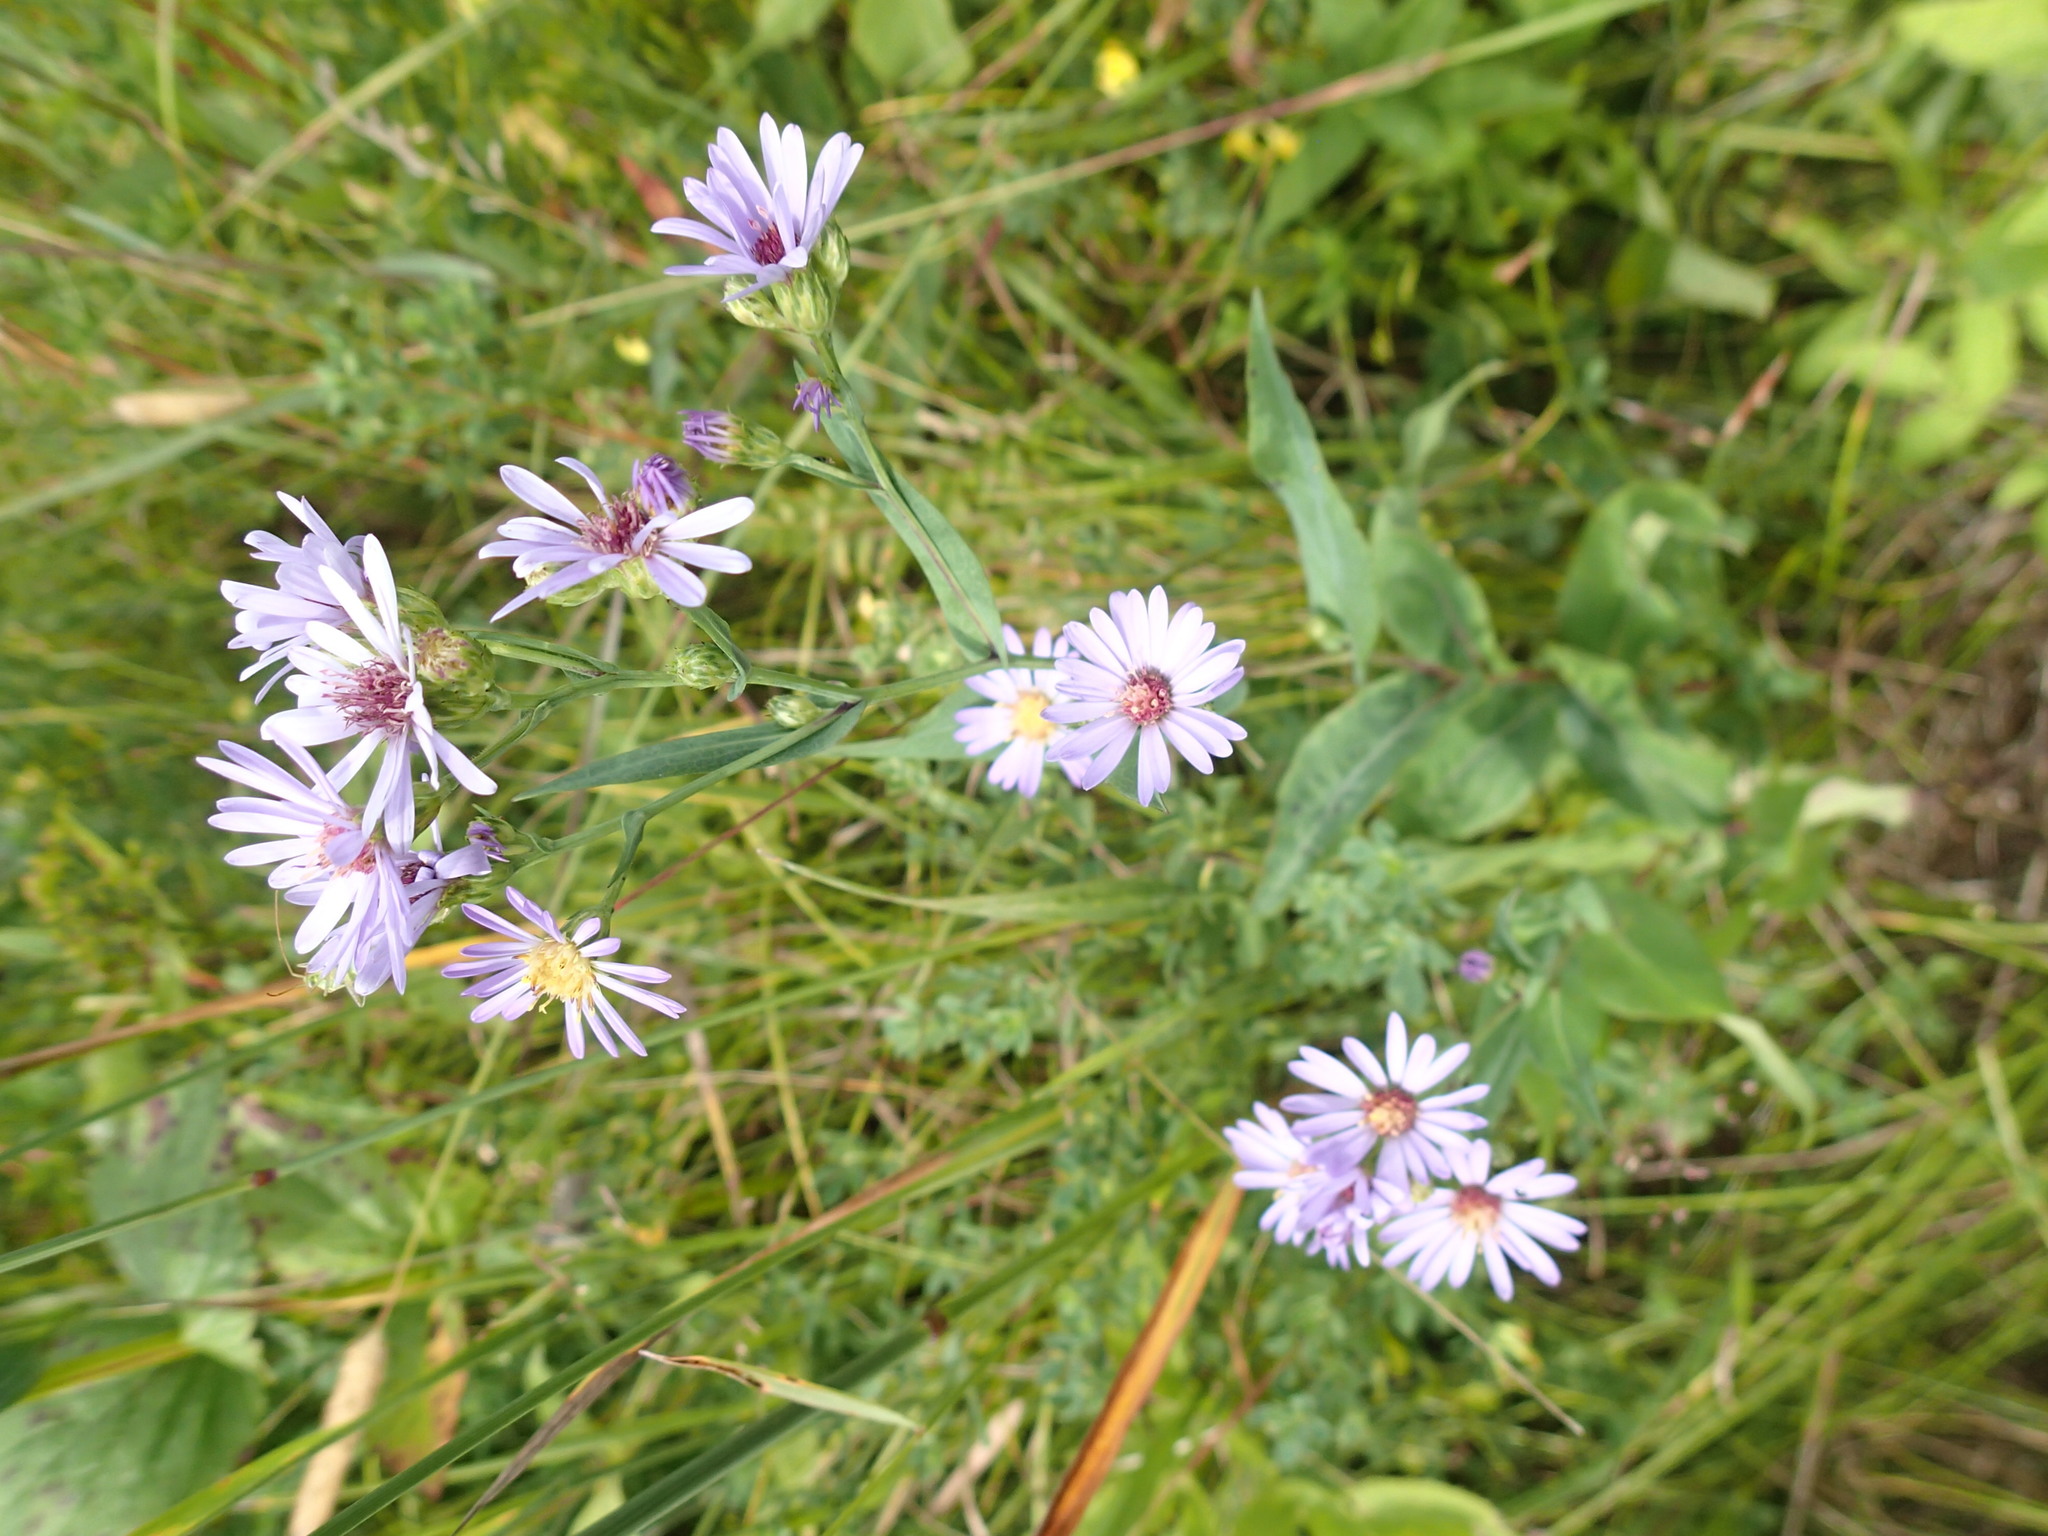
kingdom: Plantae
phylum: Tracheophyta
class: Magnoliopsida
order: Asterales
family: Asteraceae
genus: Symphyotrichum
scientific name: Symphyotrichum laeve
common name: Glaucous aster
